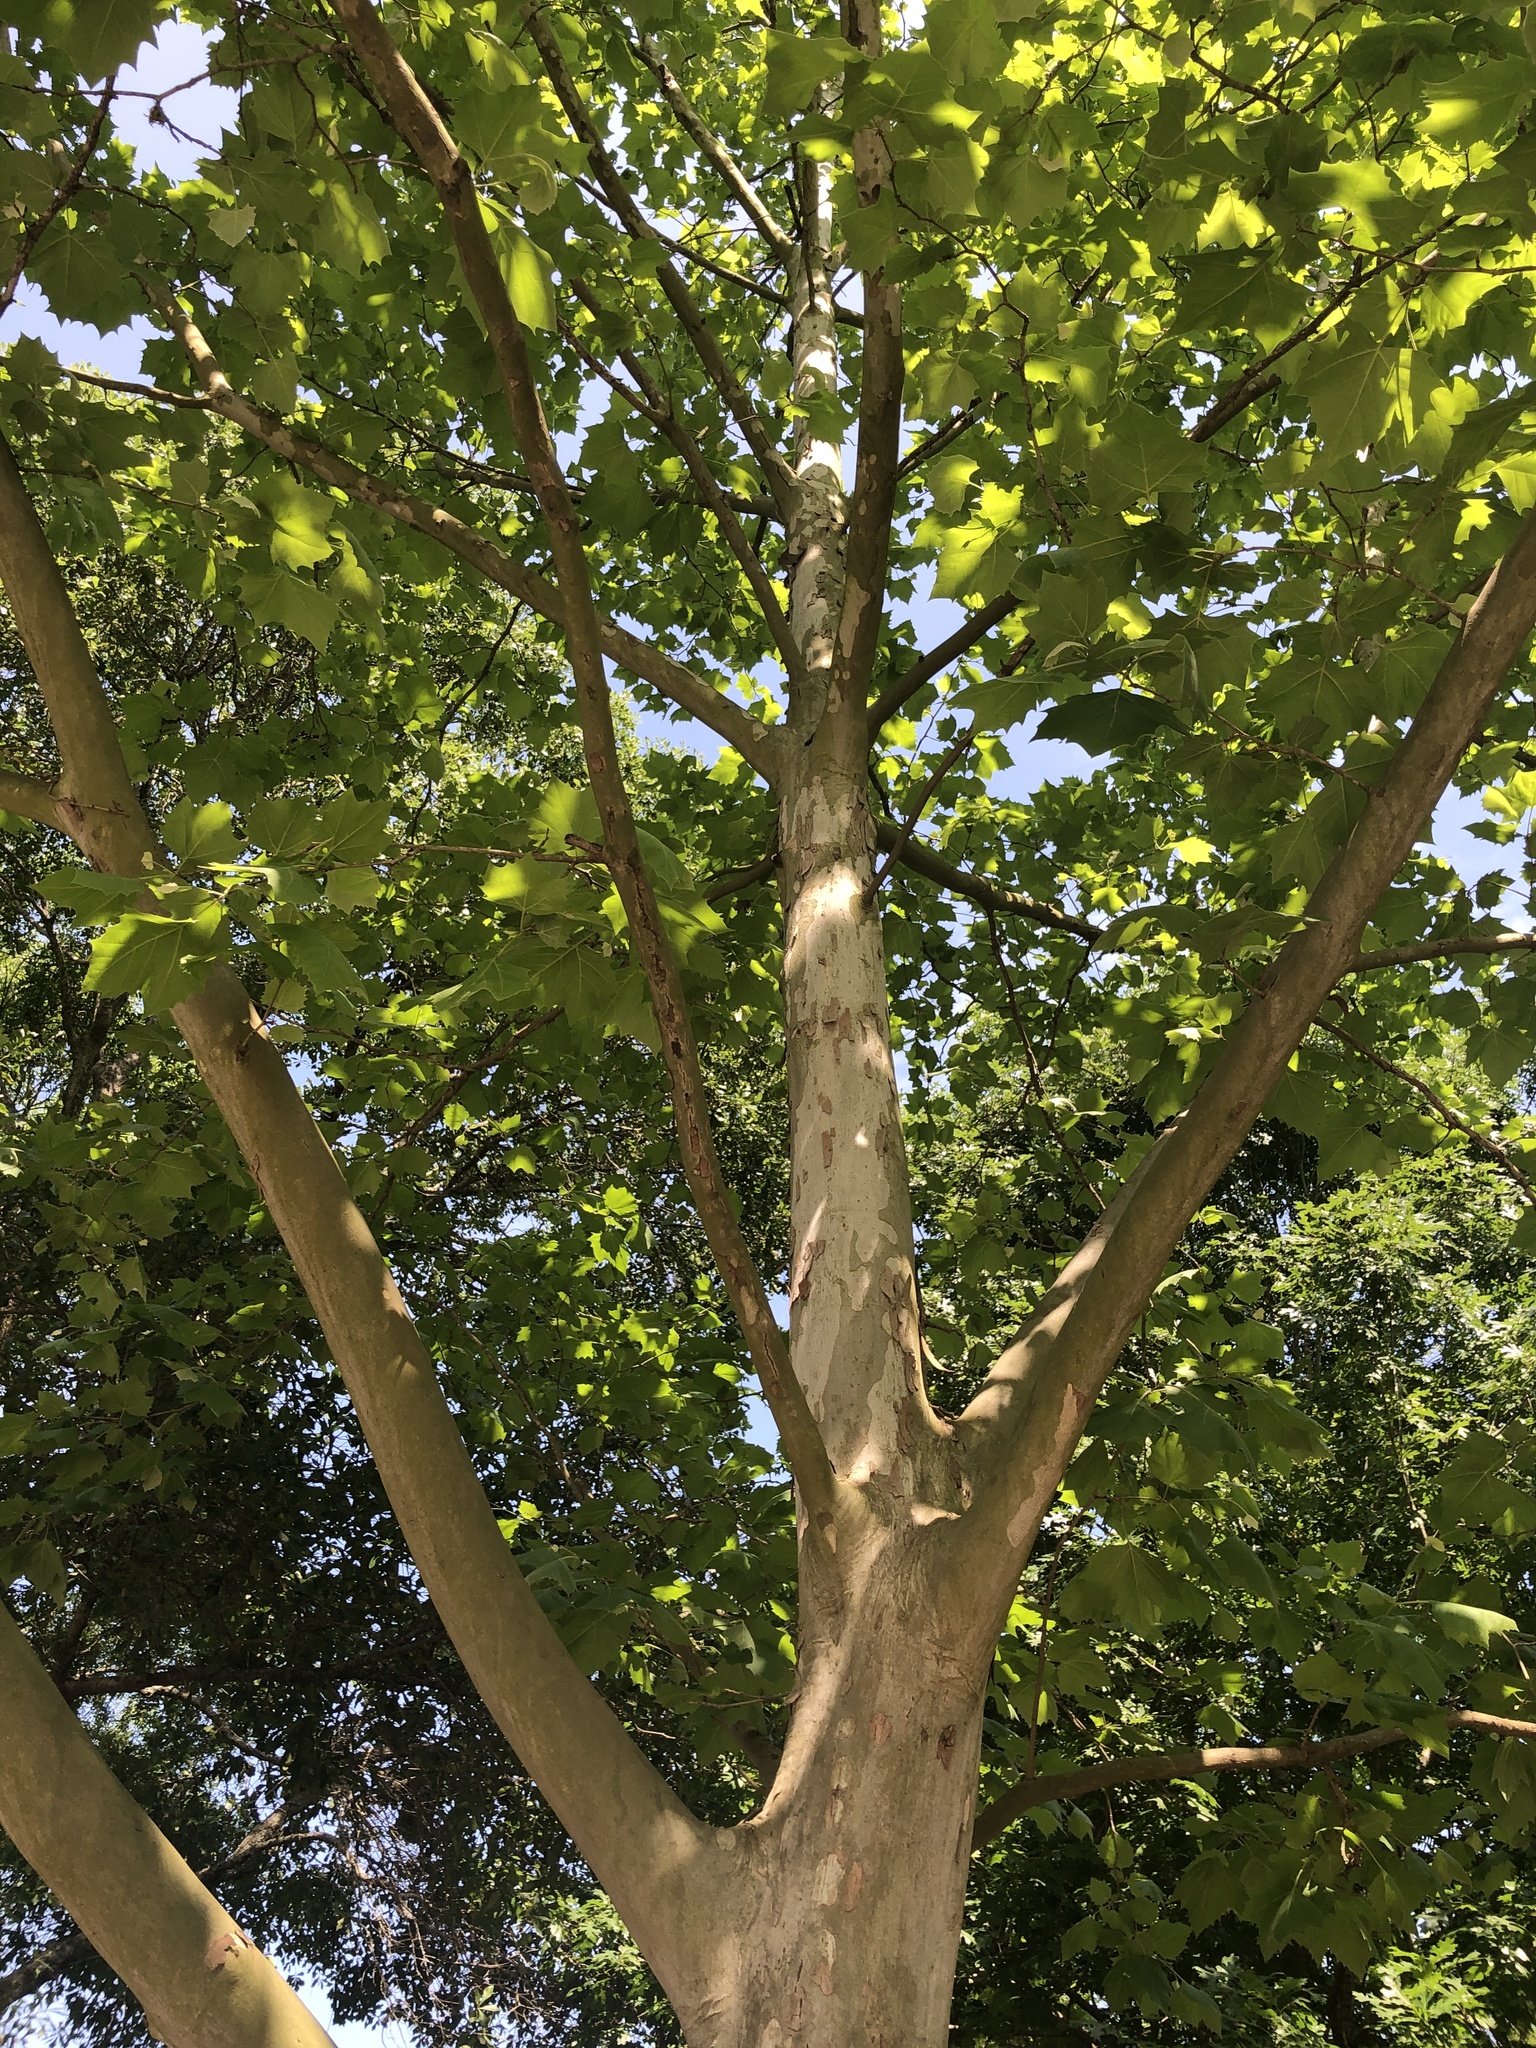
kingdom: Plantae
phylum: Tracheophyta
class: Magnoliopsida
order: Proteales
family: Platanaceae
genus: Platanus
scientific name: Platanus occidentalis
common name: American sycamore
